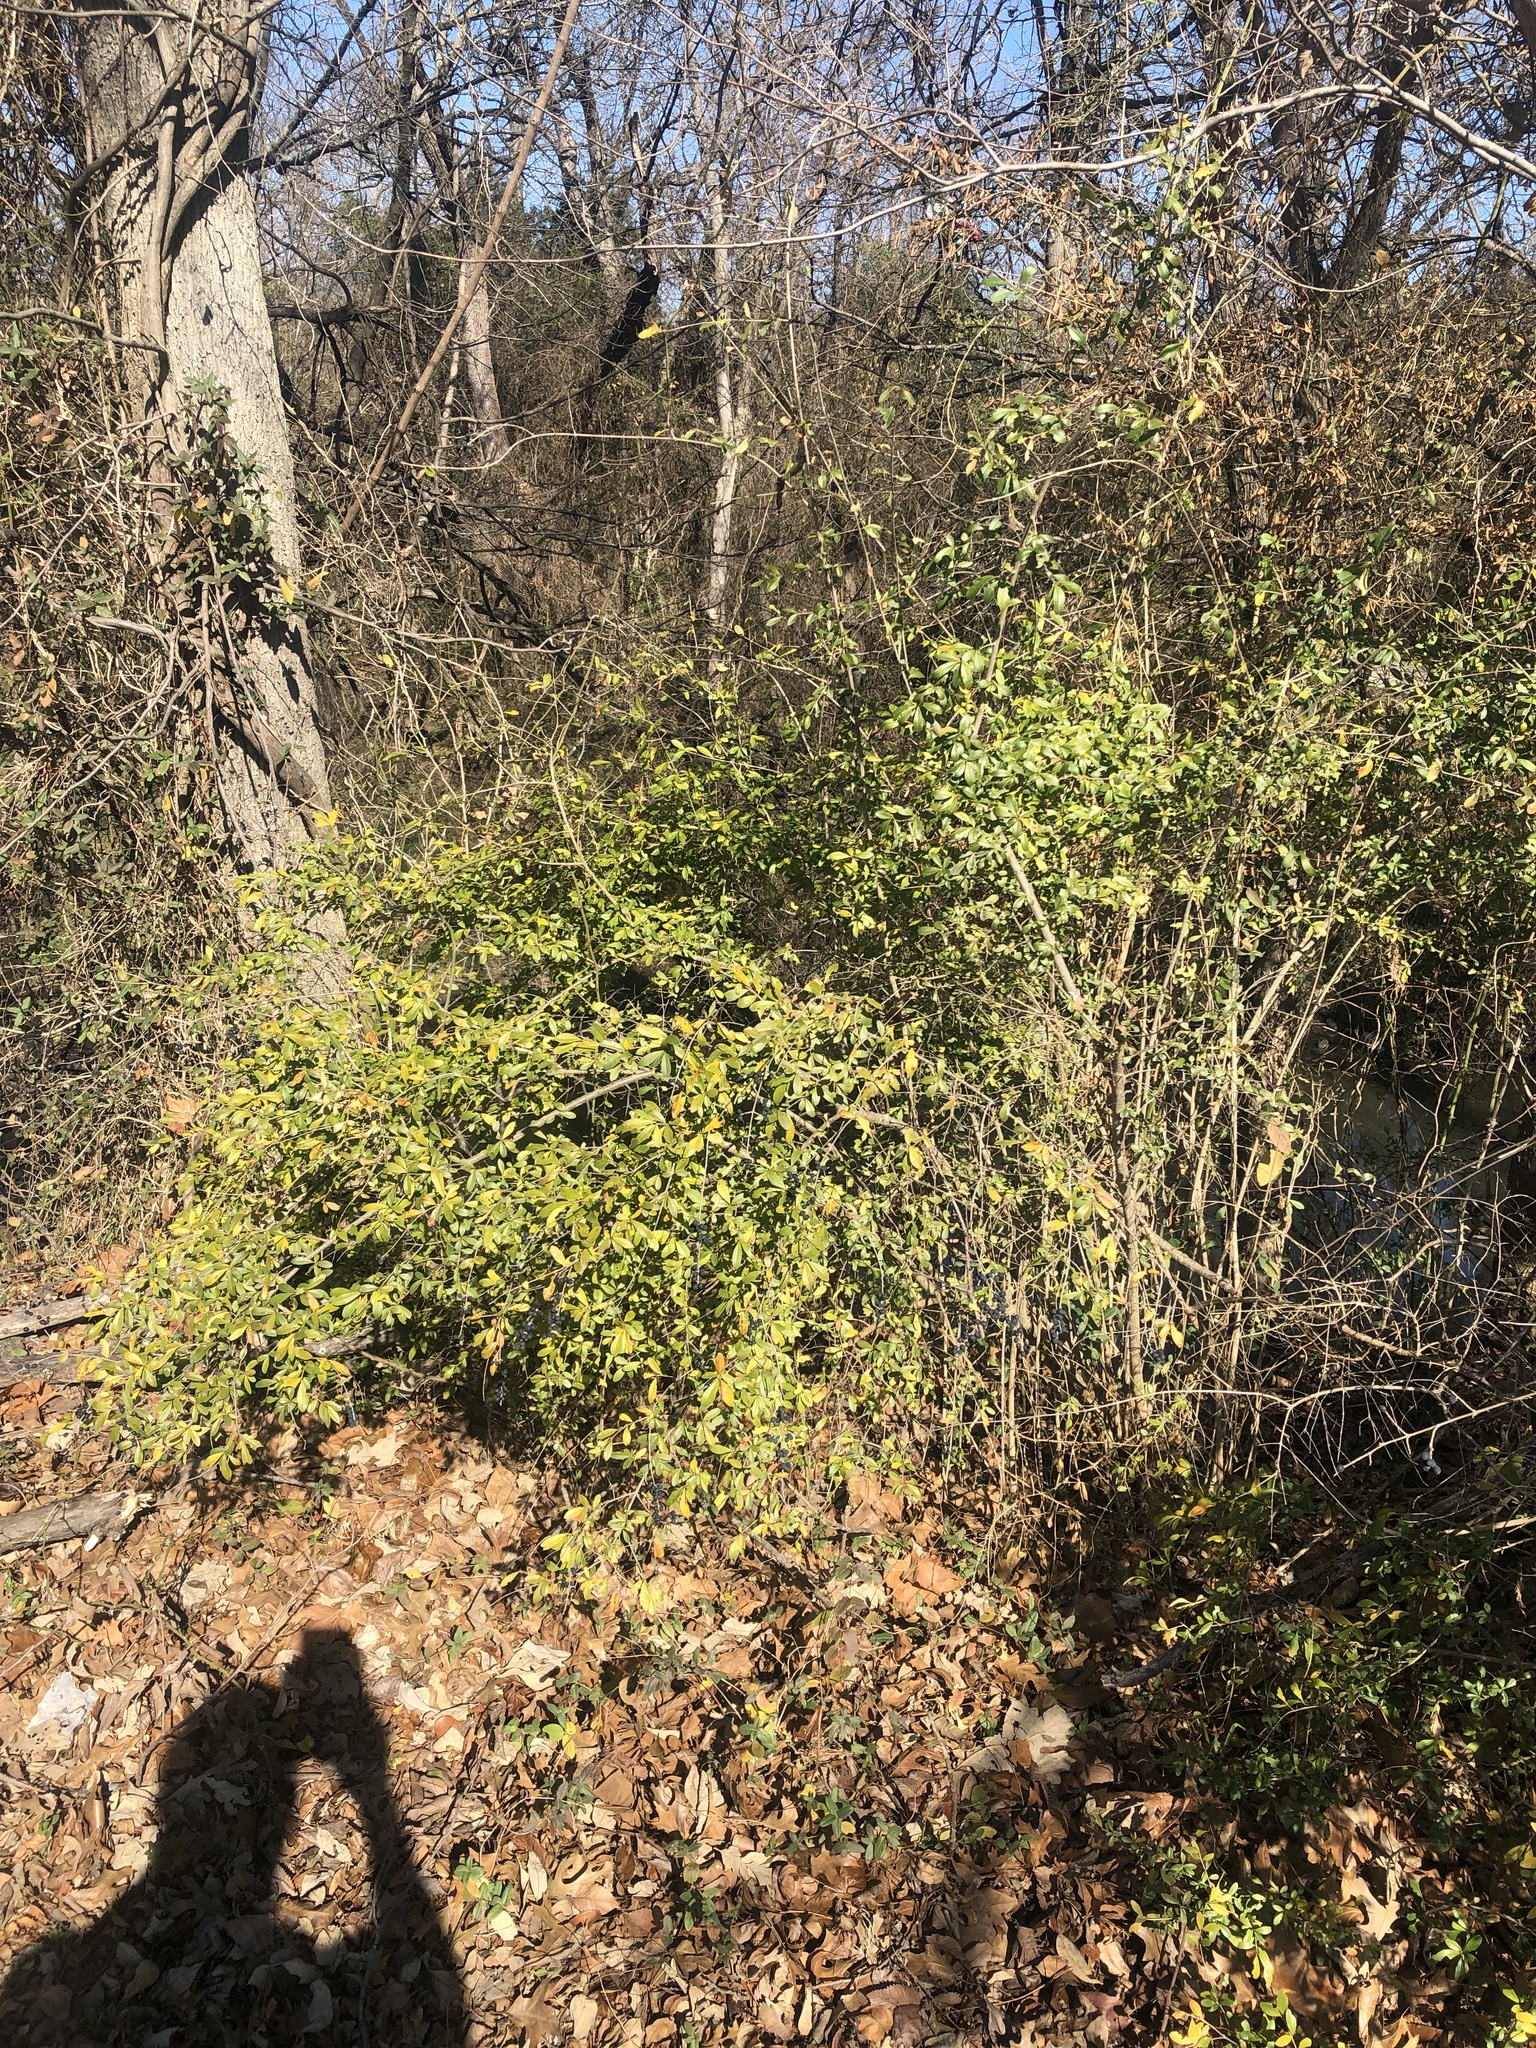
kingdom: Plantae
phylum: Tracheophyta
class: Magnoliopsida
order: Lamiales
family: Oleaceae
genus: Ligustrum
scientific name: Ligustrum quihoui
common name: Waxyleaf privet
